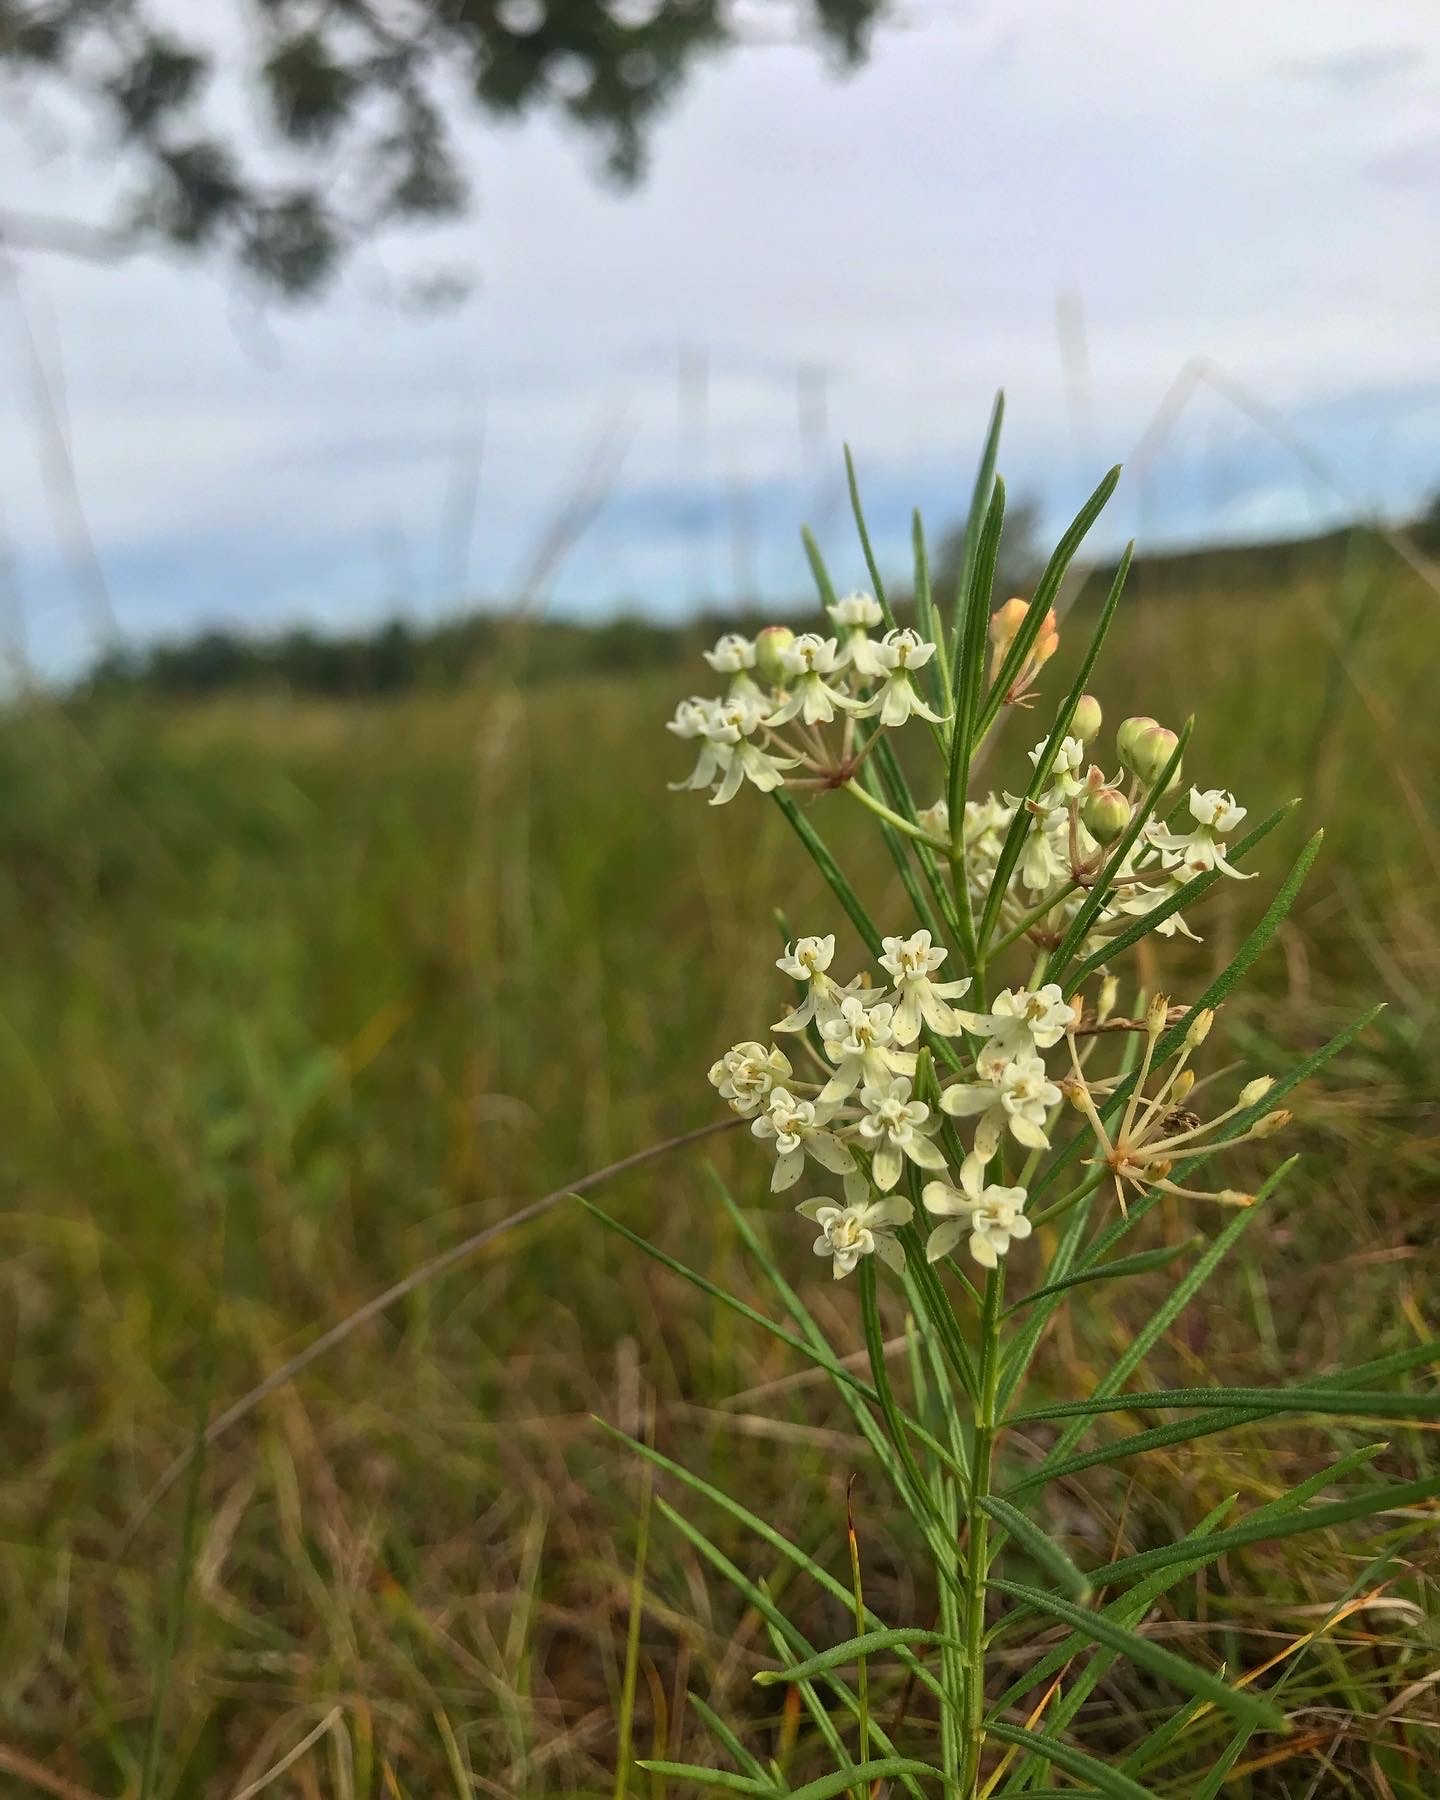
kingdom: Plantae
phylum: Tracheophyta
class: Magnoliopsida
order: Gentianales
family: Apocynaceae
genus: Asclepias
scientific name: Asclepias verticillata
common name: Eastern whorled milkweed
